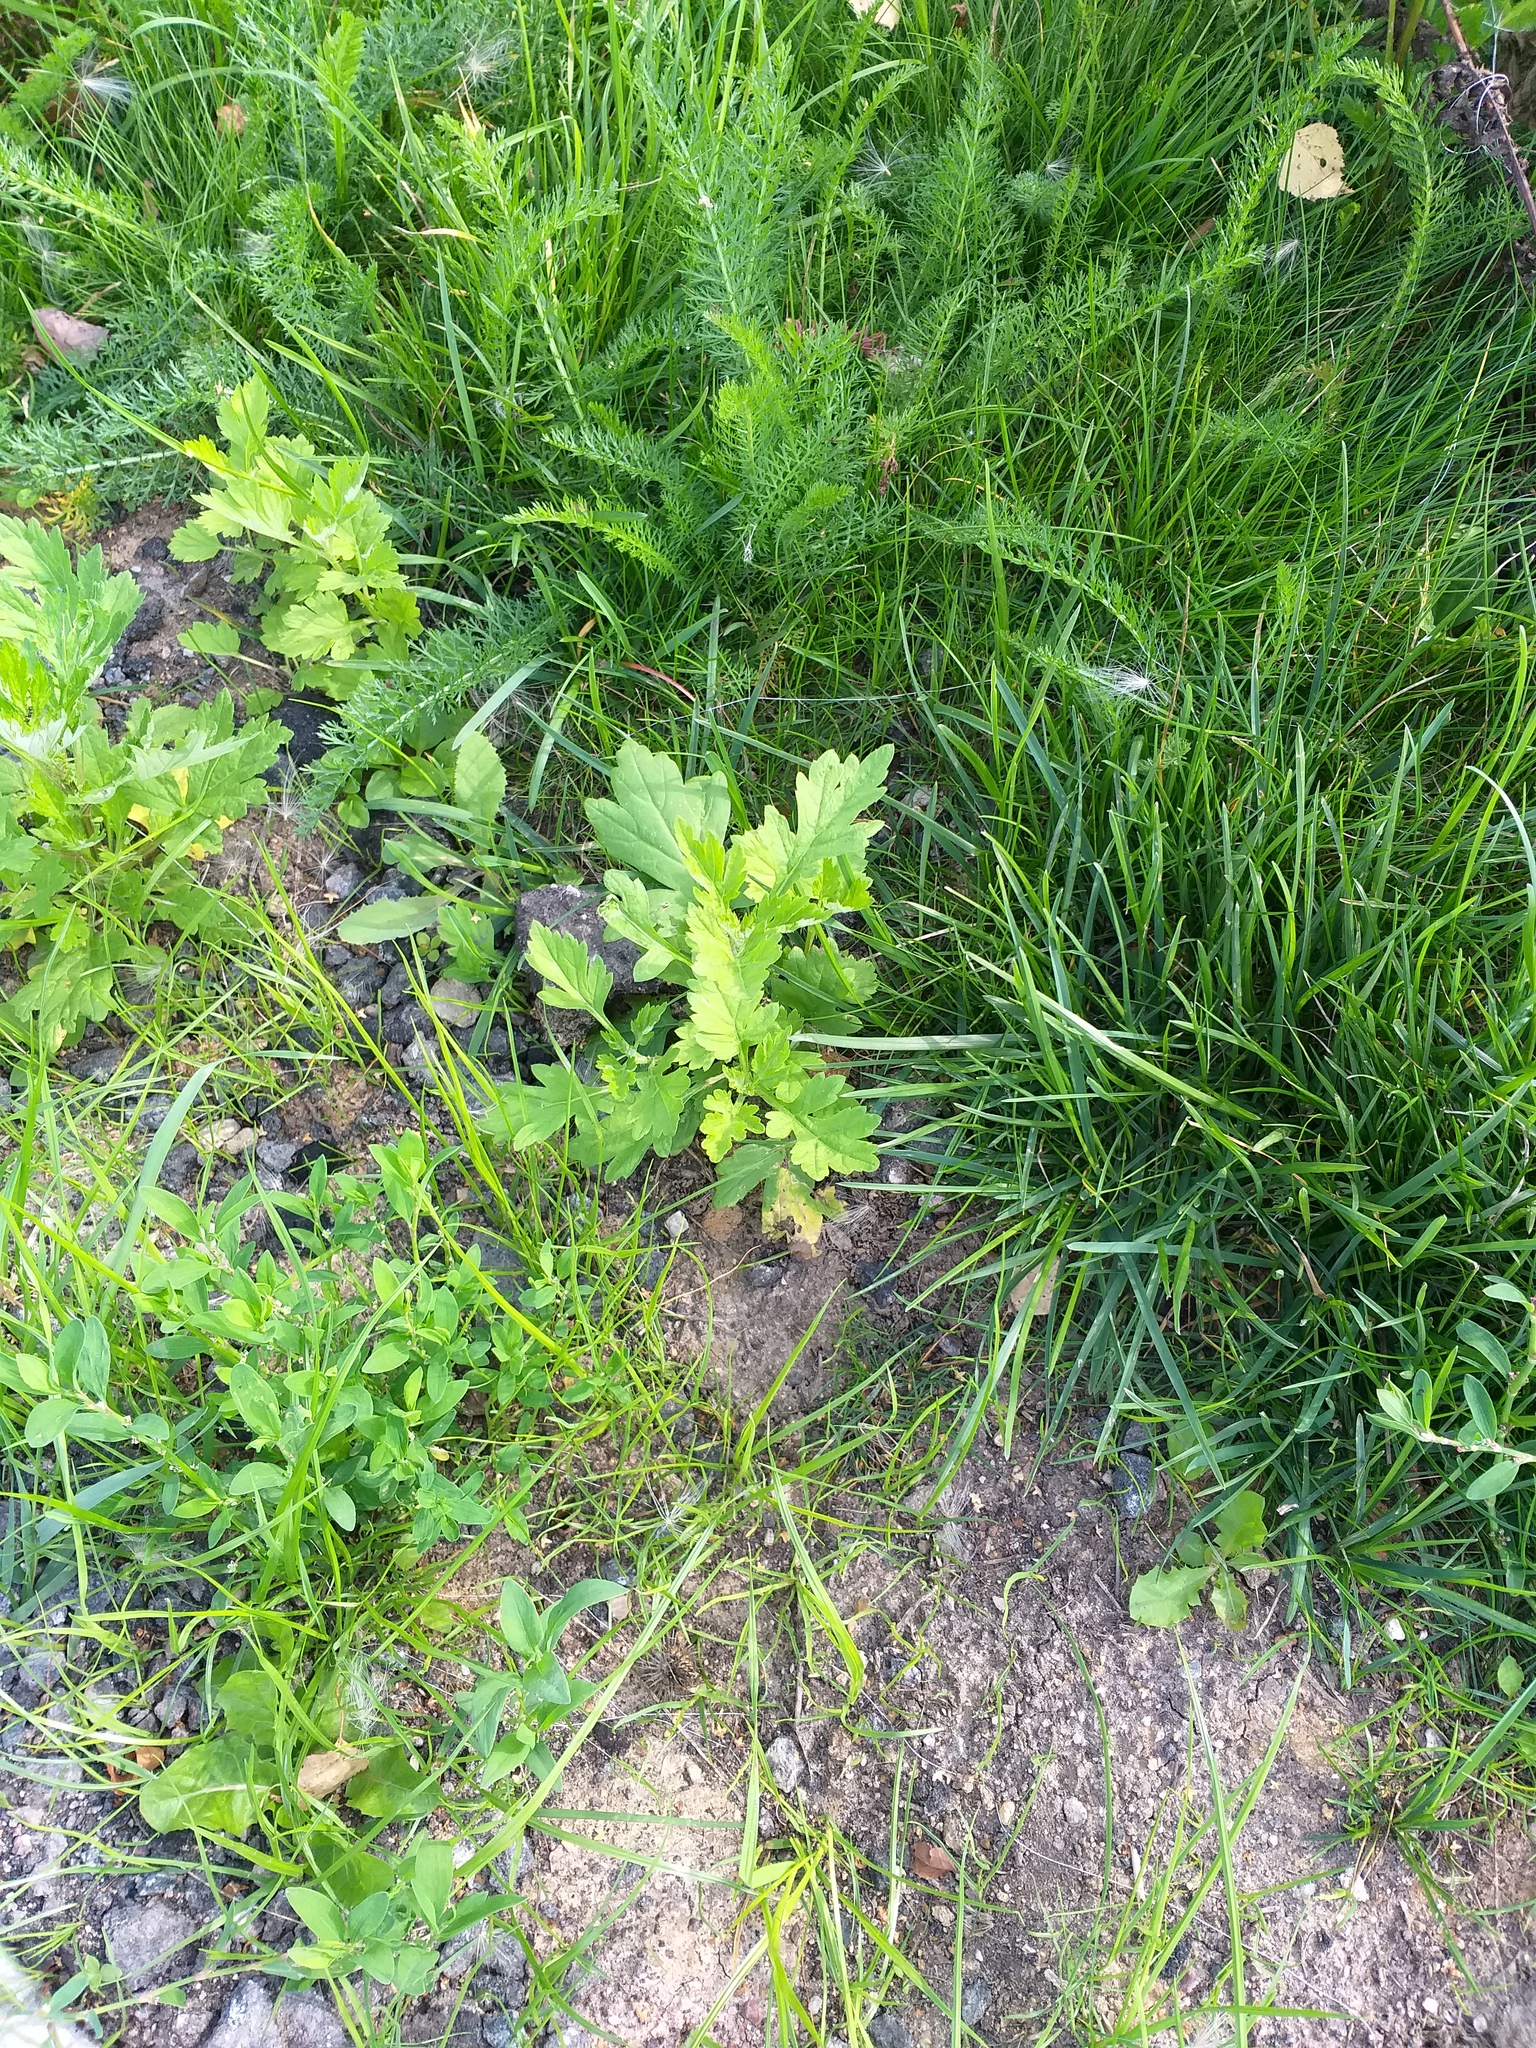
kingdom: Plantae
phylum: Tracheophyta
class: Magnoliopsida
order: Asterales
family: Asteraceae
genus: Artemisia
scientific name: Artemisia vulgaris
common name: Mugwort
